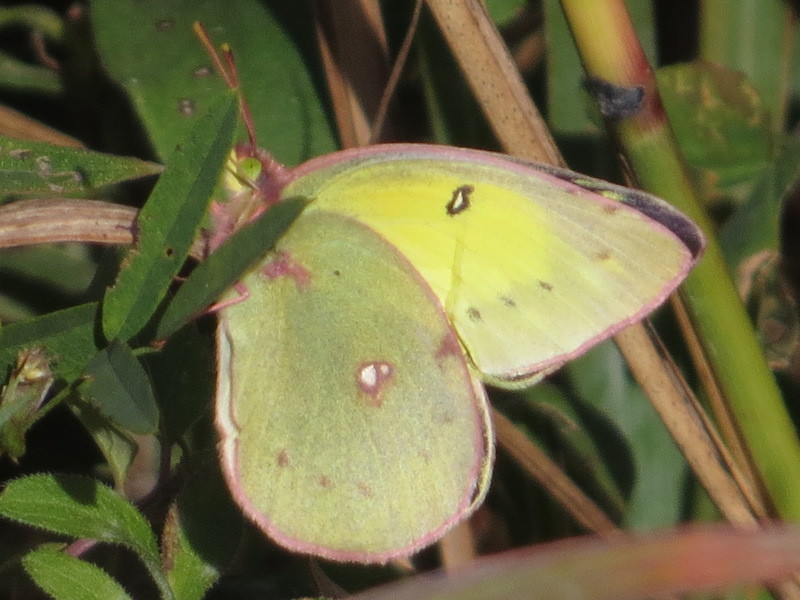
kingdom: Animalia
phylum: Arthropoda
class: Insecta
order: Lepidoptera
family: Pieridae
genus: Colias
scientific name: Colias eurytheme
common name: Alfalfa butterfly
